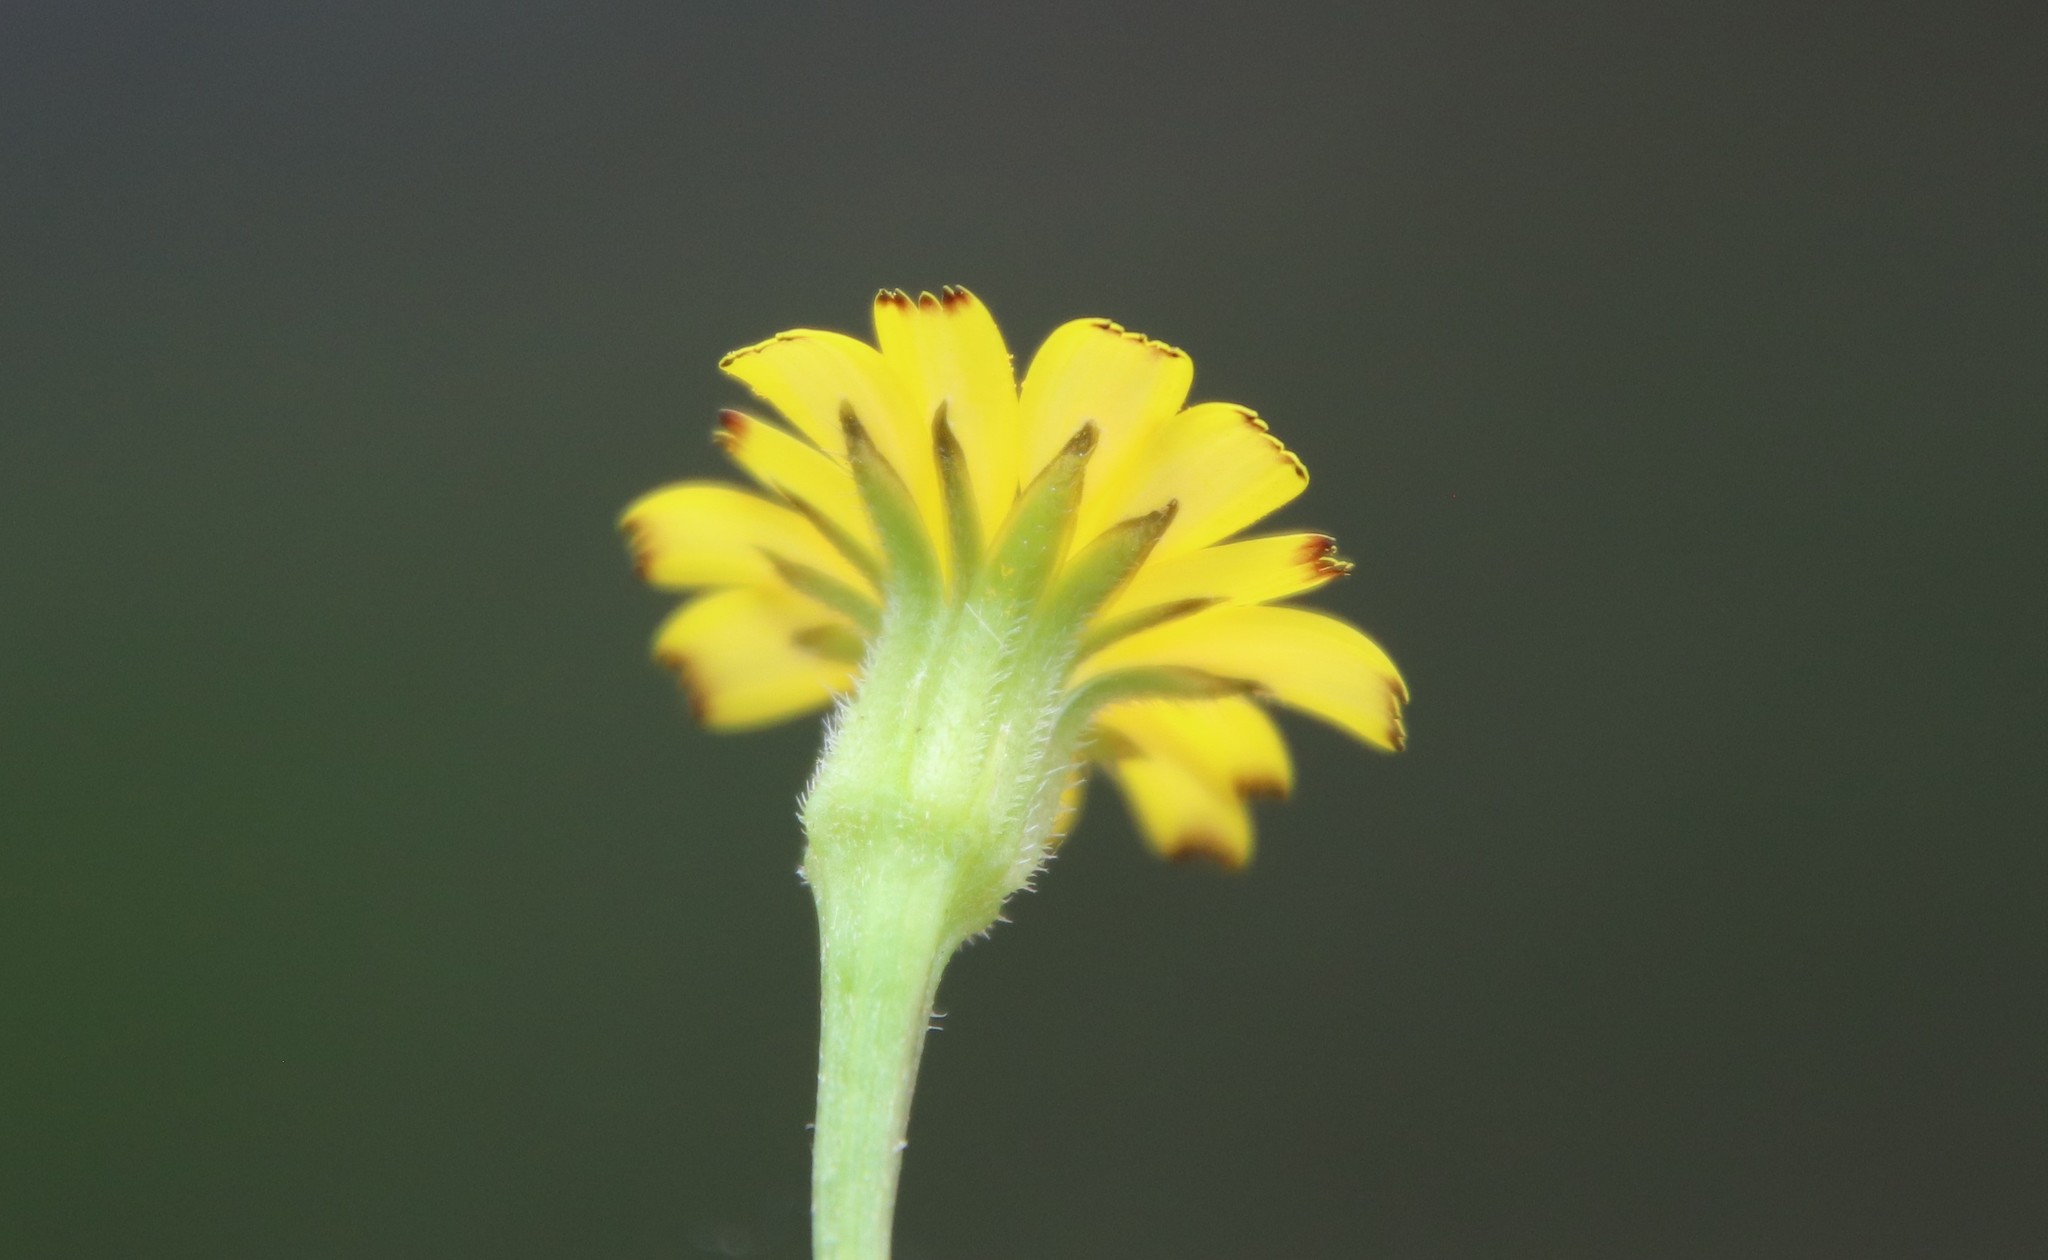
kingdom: Plantae
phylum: Tracheophyta
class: Magnoliopsida
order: Asterales
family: Asteraceae
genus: Hedypnois
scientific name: Hedypnois rhagadioloides
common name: Cretan weed
